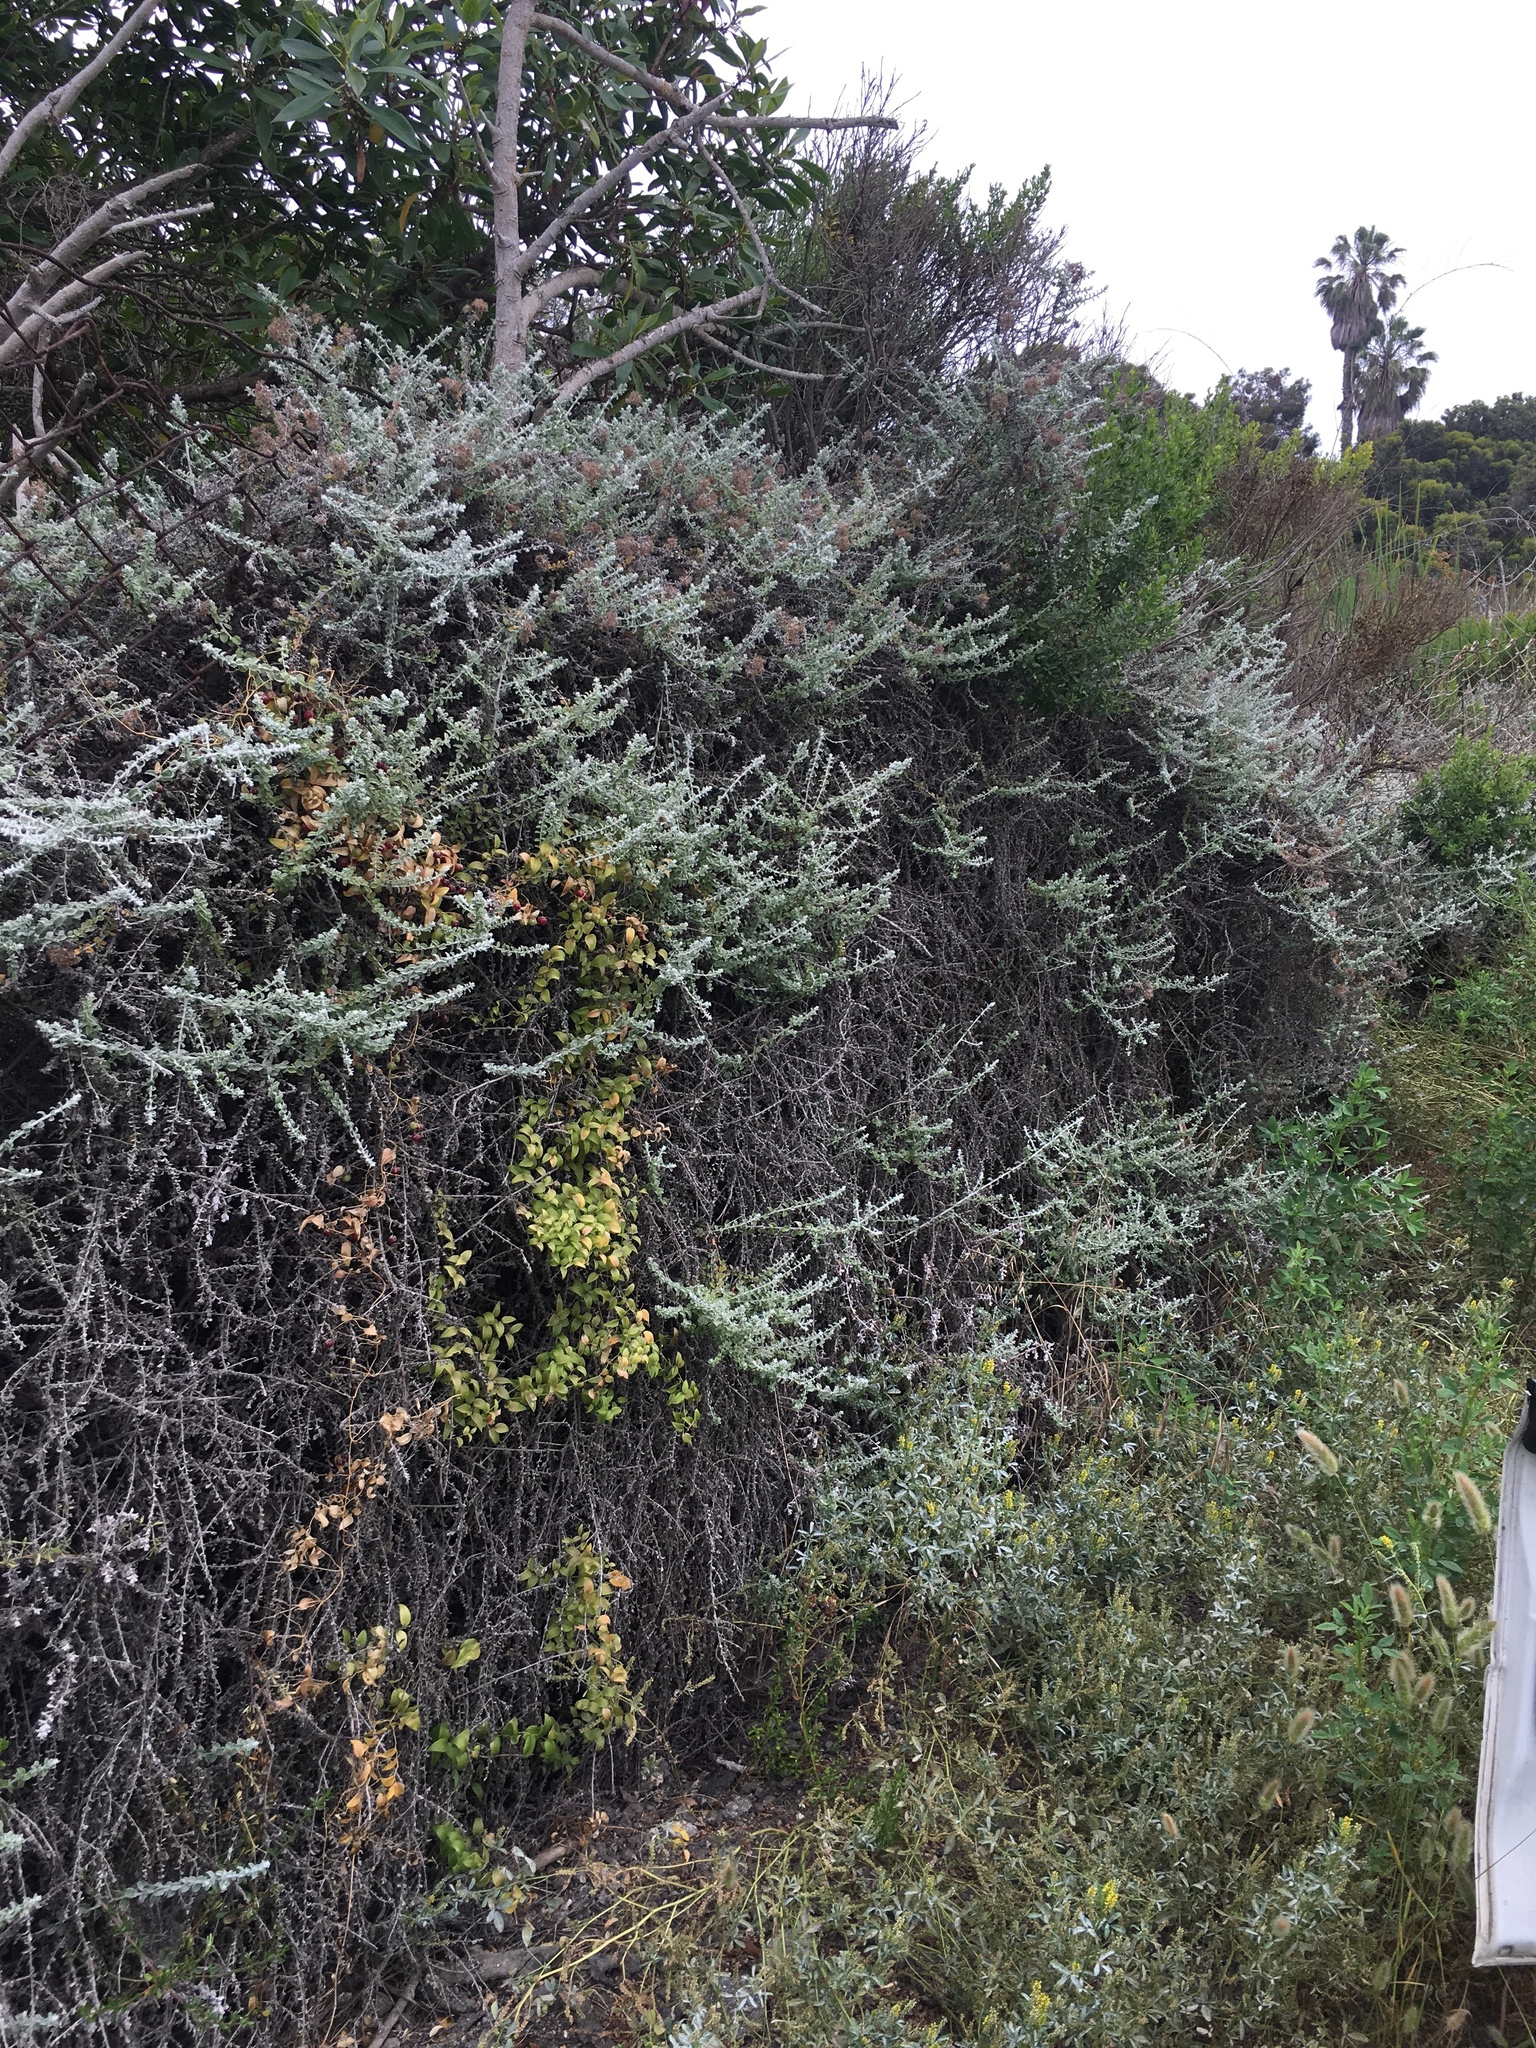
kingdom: Plantae
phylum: Tracheophyta
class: Magnoliopsida
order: Asterales
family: Asteraceae
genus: Plecostachys
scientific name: Plecostachys serpyllifolia
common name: Petite licorice
